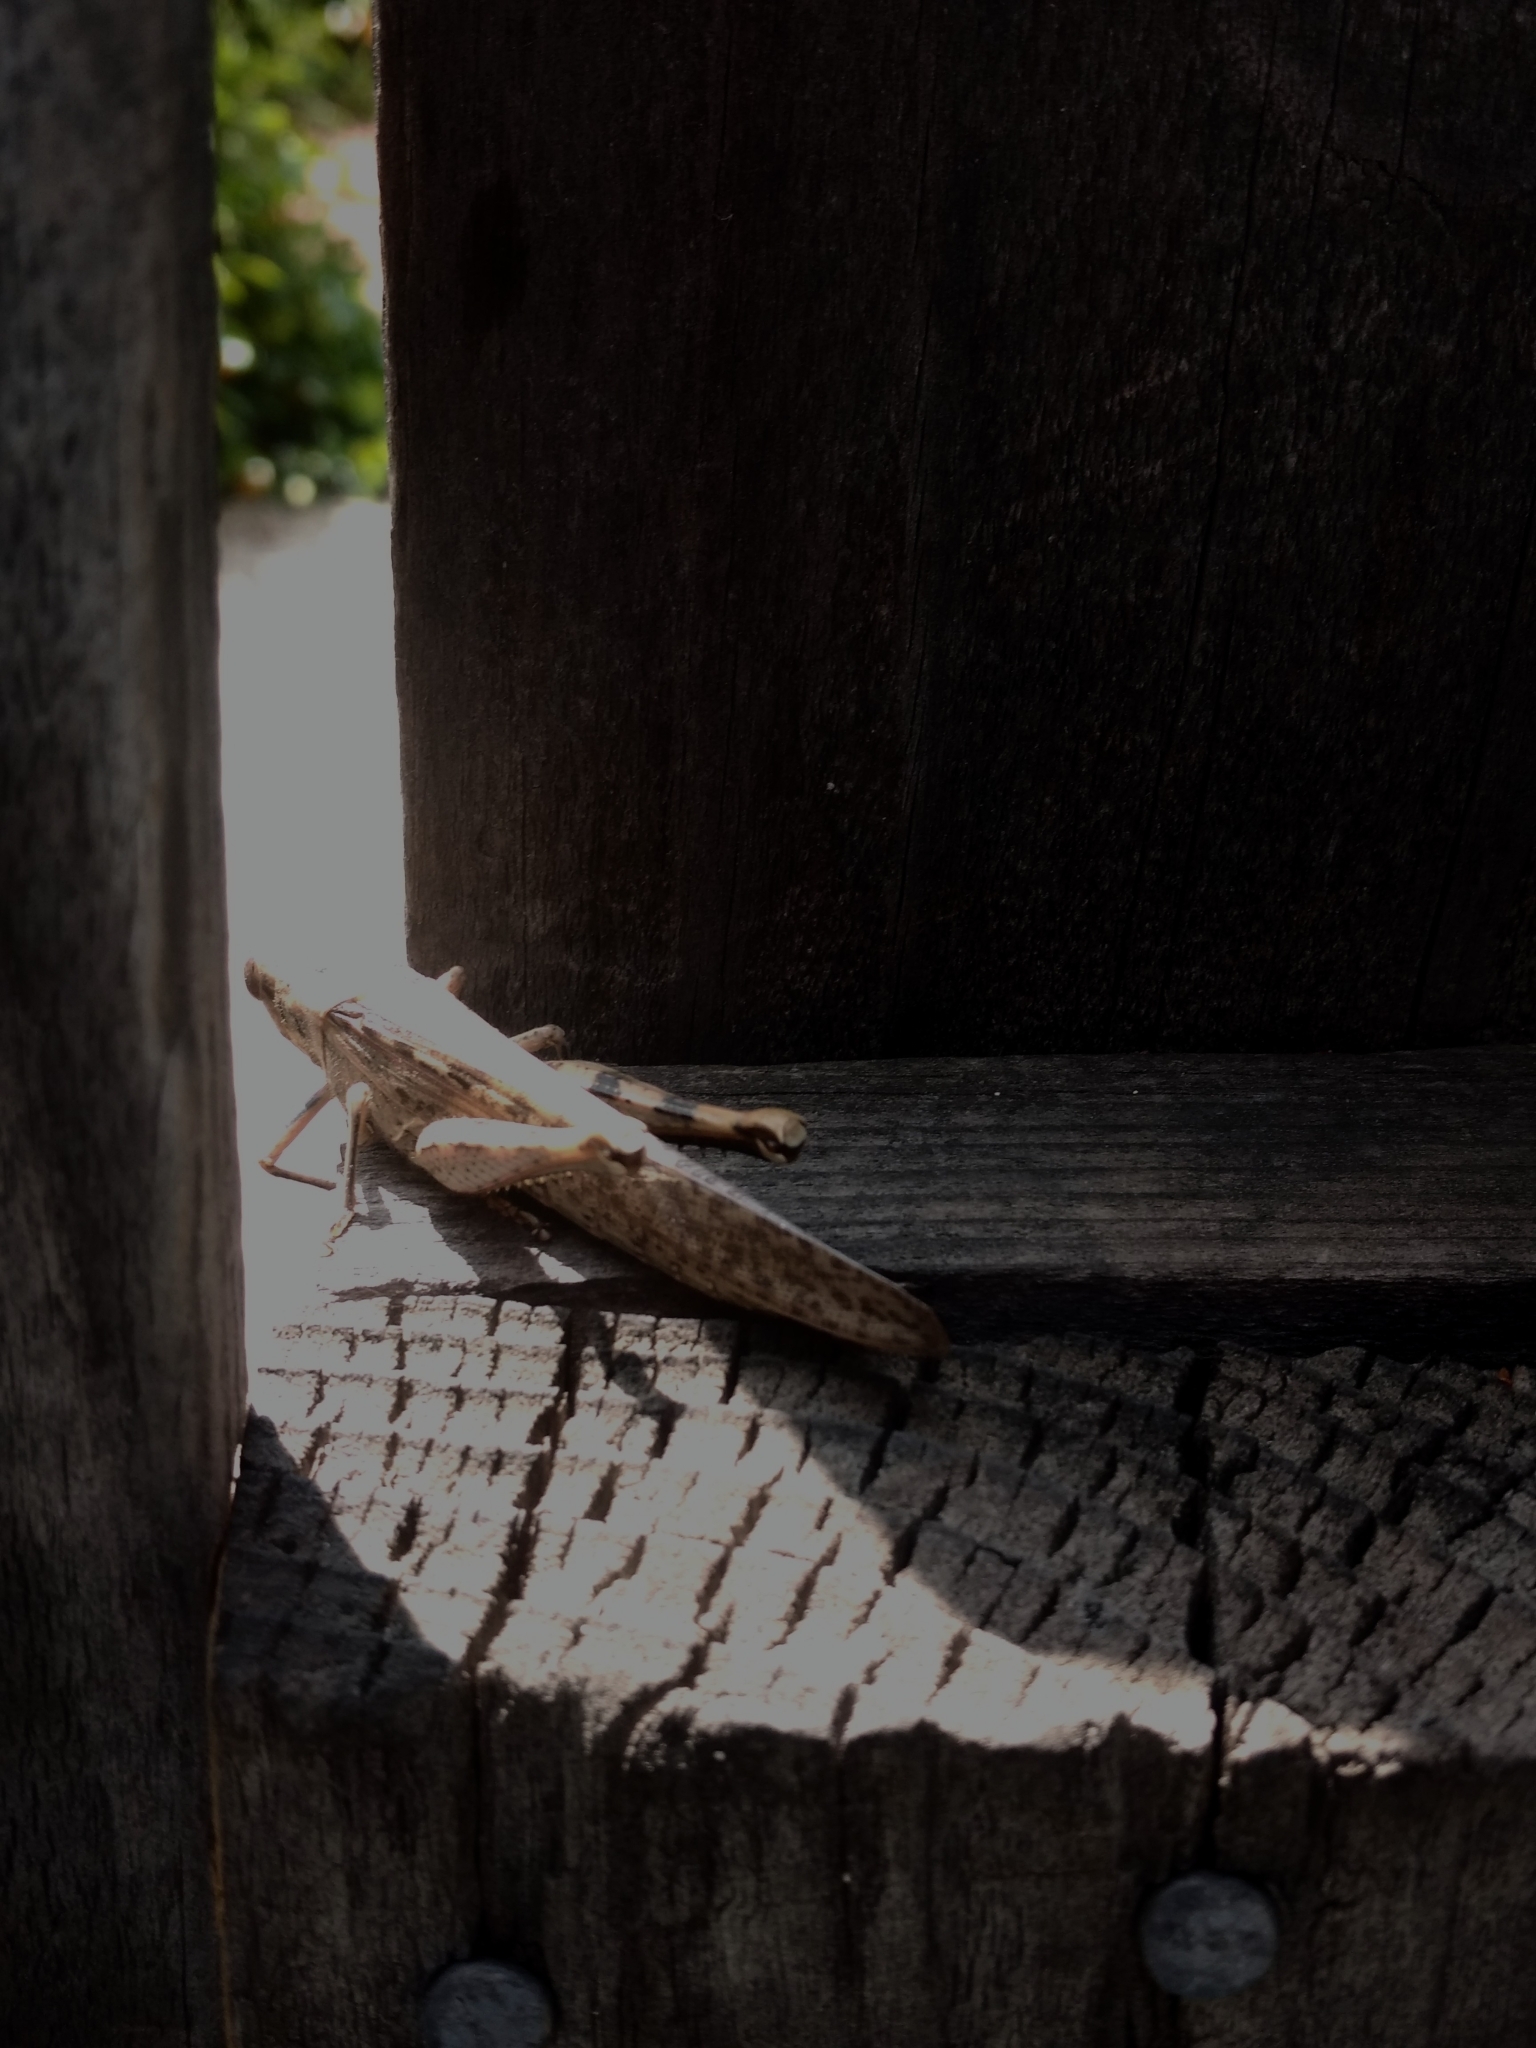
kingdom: Animalia
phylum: Arthropoda
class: Insecta
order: Orthoptera
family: Acrididae
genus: Schistocerca
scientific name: Schistocerca nitens
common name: Vagrant grasshopper
